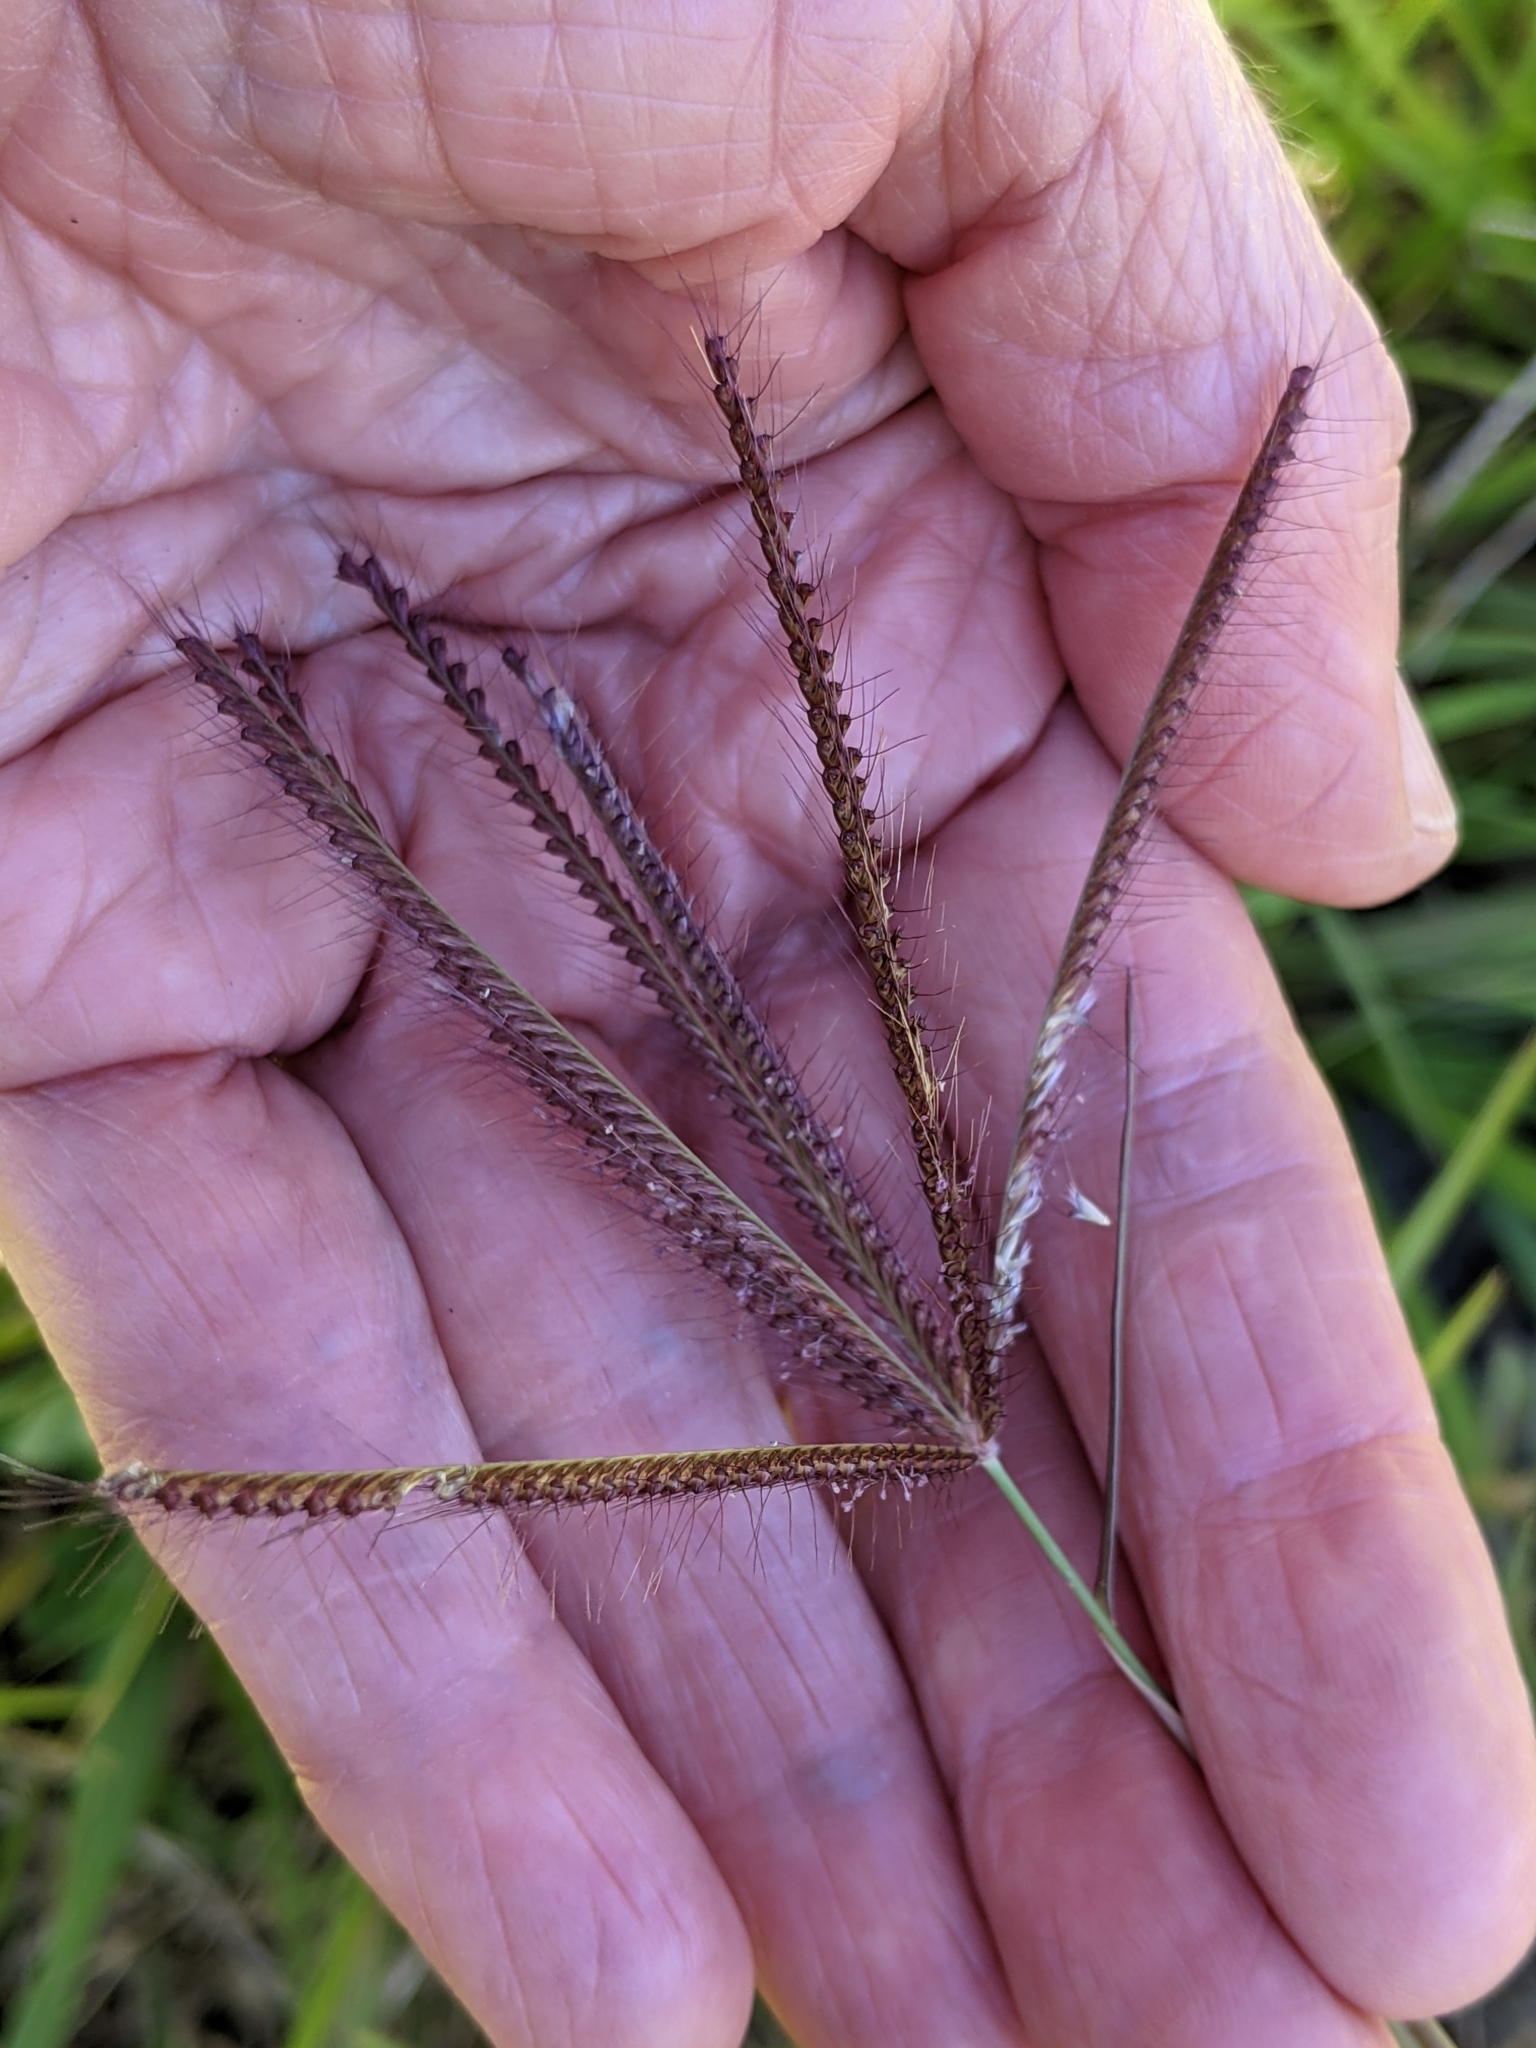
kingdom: Plantae
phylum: Tracheophyta
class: Liliopsida
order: Poales
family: Poaceae
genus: Chloris
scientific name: Chloris barbata
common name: Swollen fingergrass
